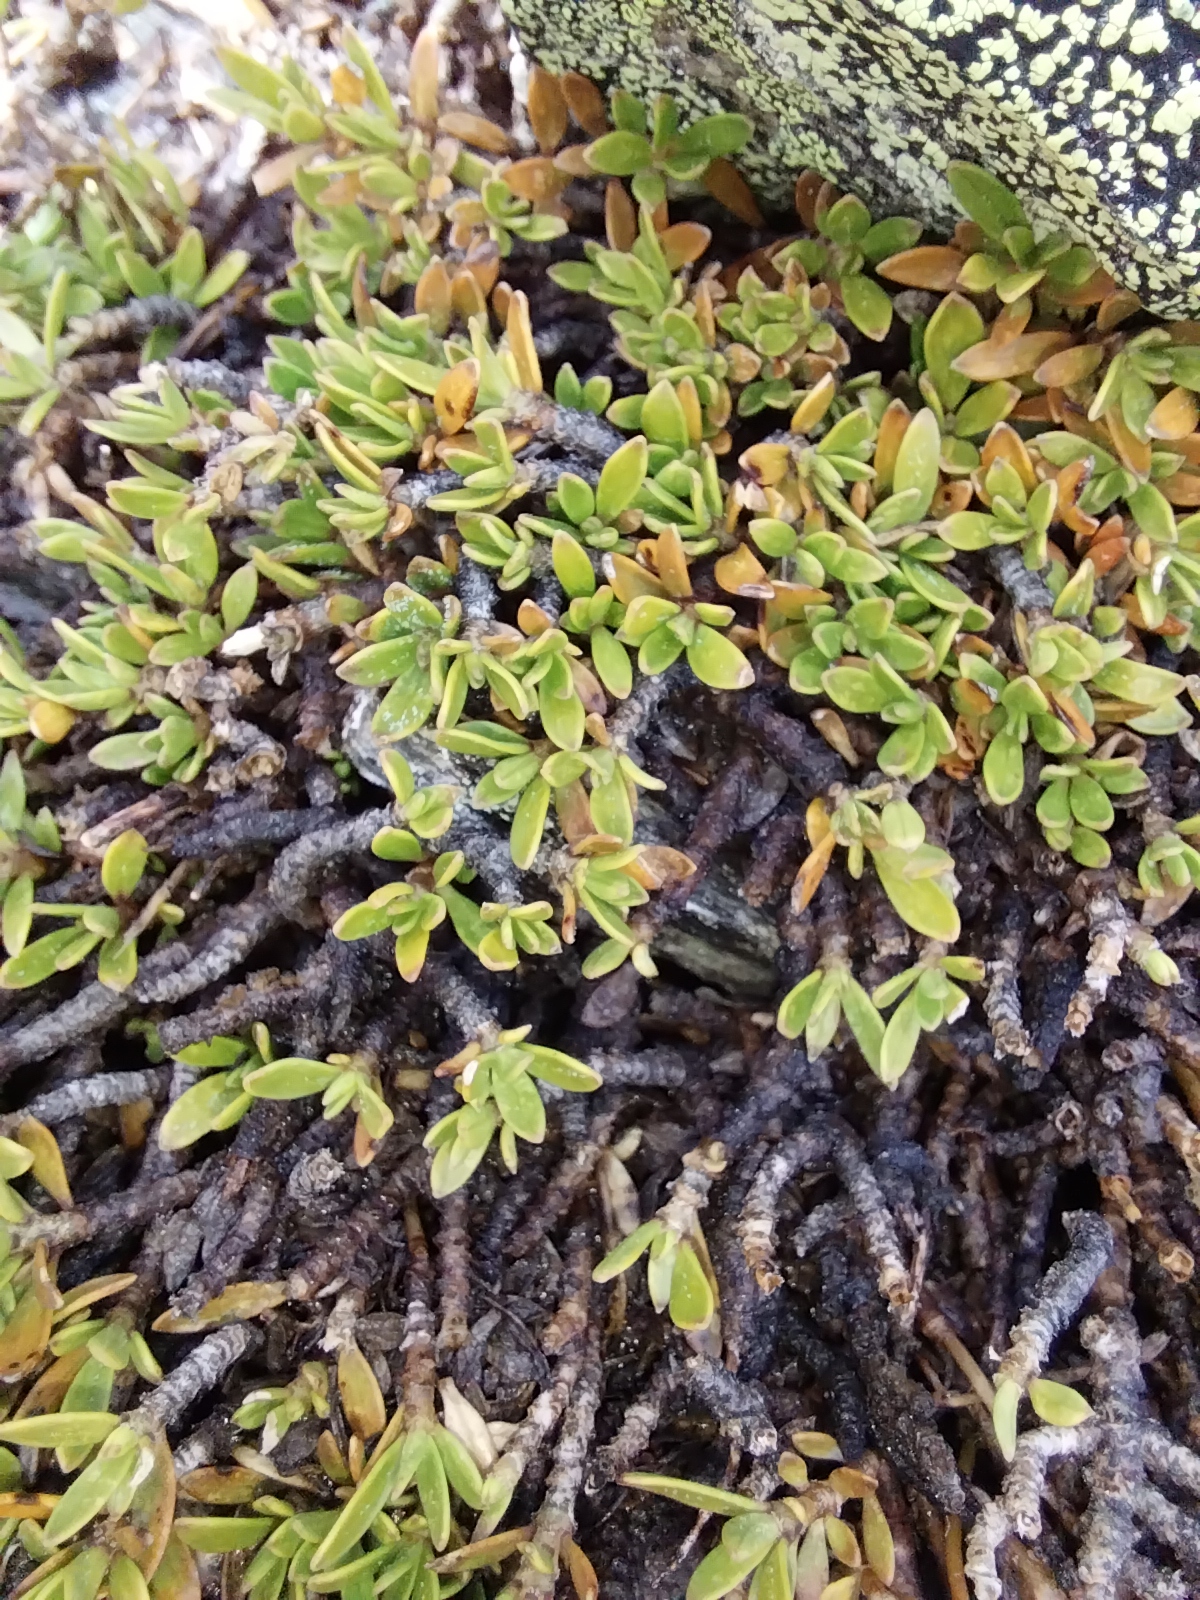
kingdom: Plantae
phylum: Tracheophyta
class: Magnoliopsida
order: Gentianales
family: Rubiaceae
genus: Coprosma
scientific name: Coprosma petriei
